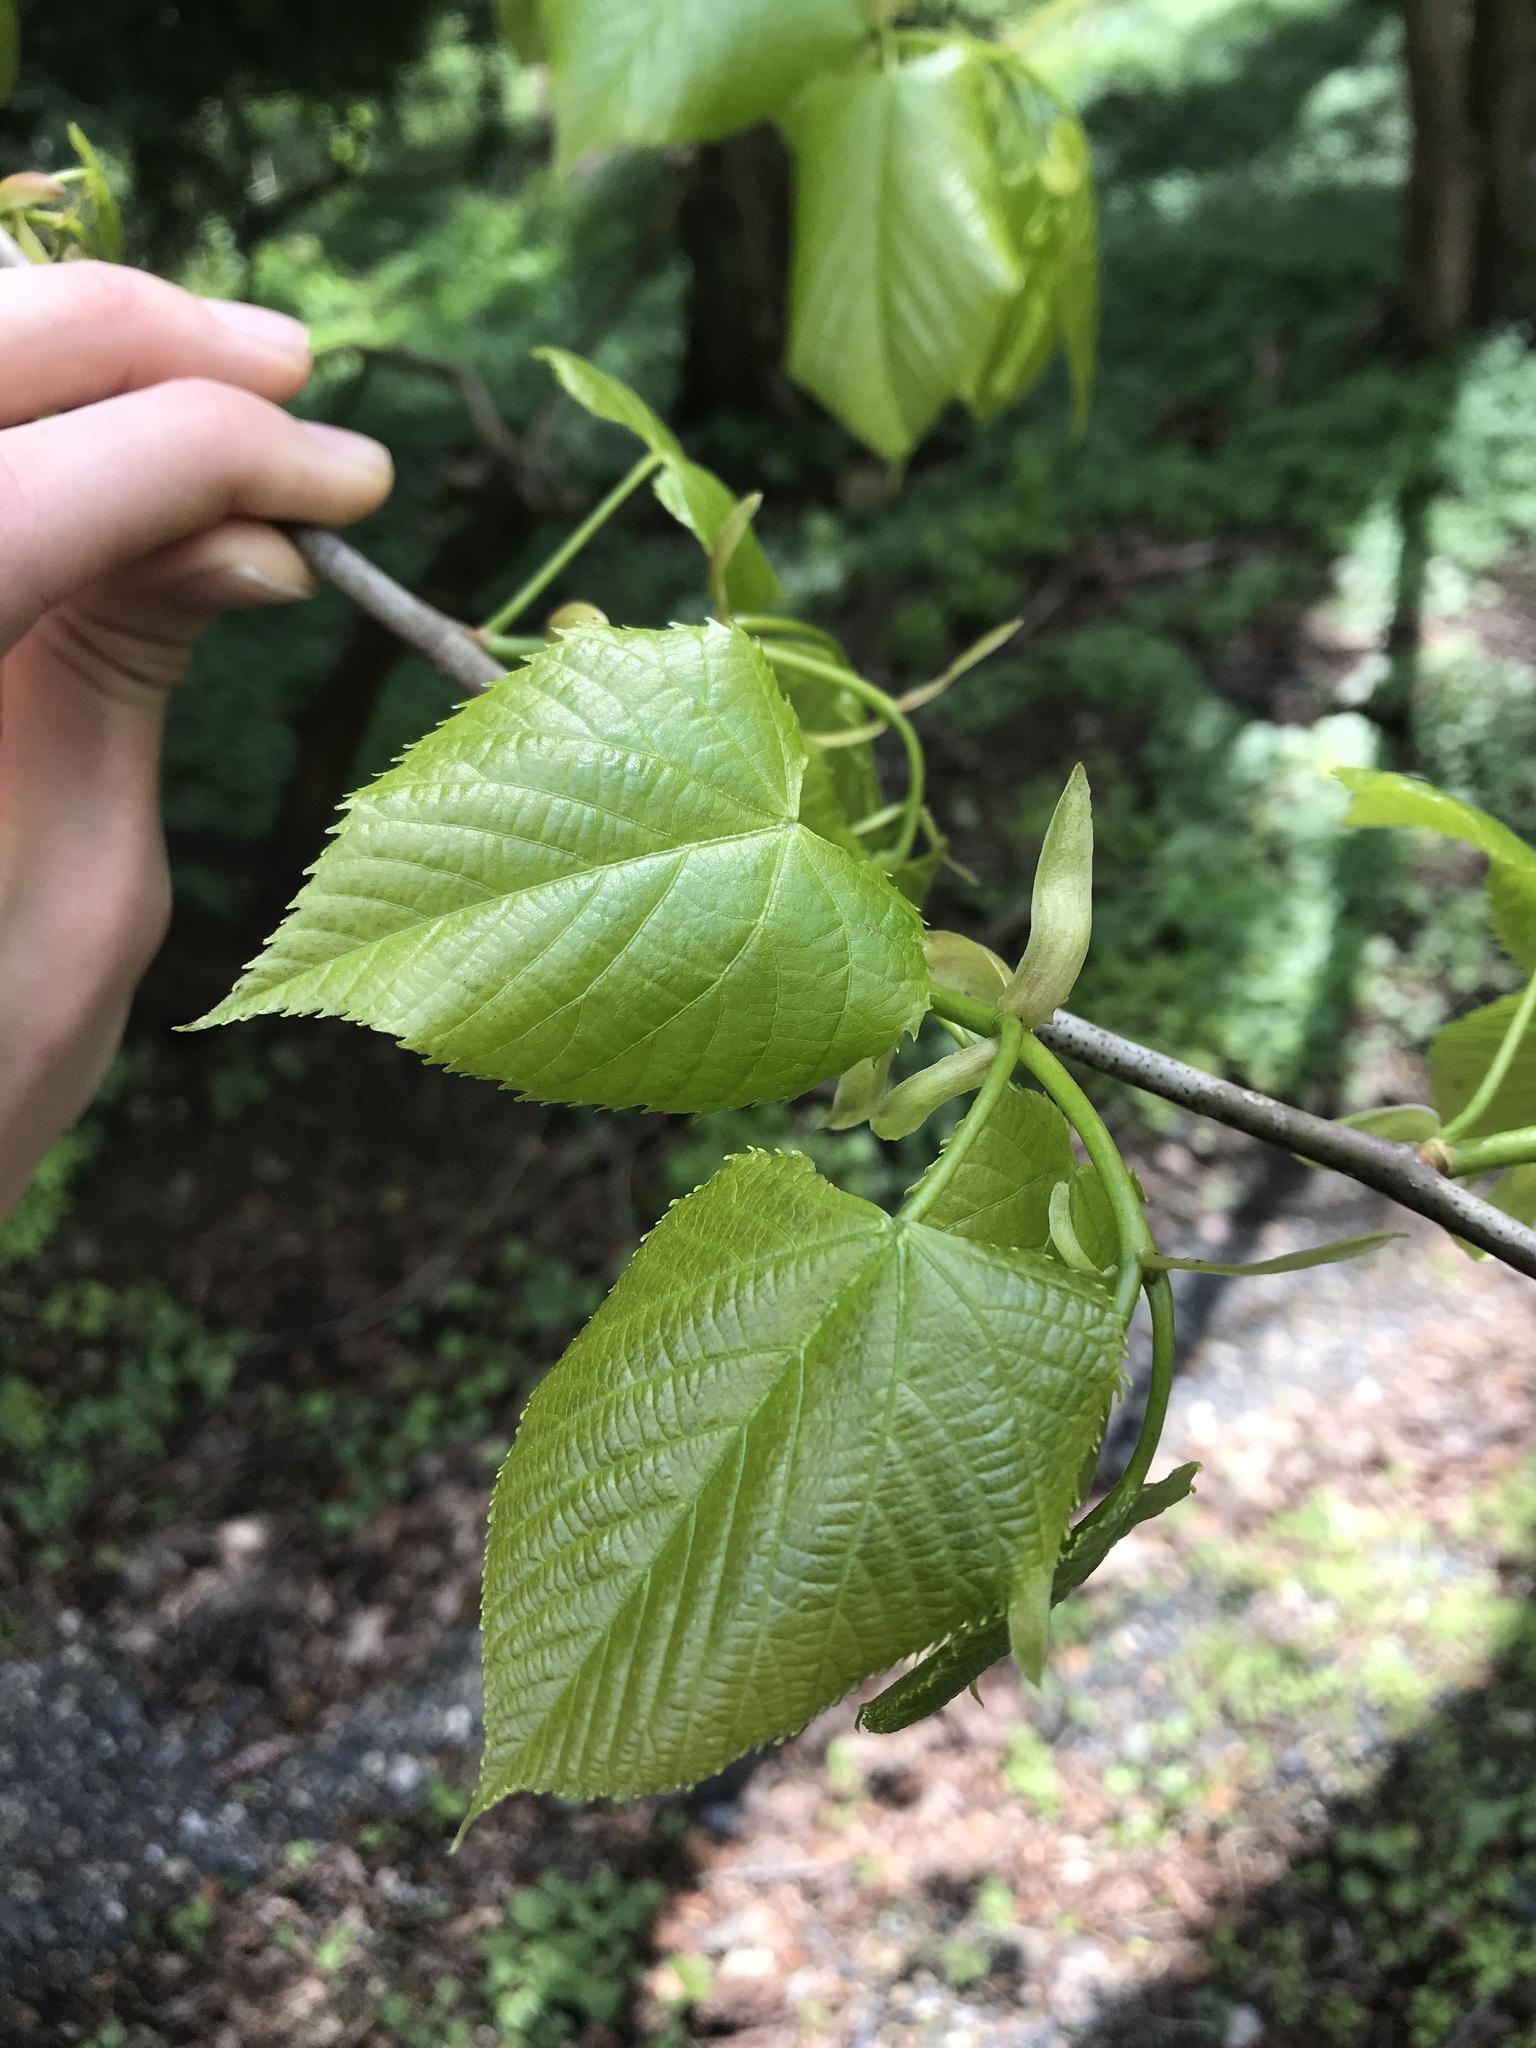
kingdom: Plantae
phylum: Tracheophyta
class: Magnoliopsida
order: Malvales
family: Malvaceae
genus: Tilia
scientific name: Tilia americana
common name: Basswood
